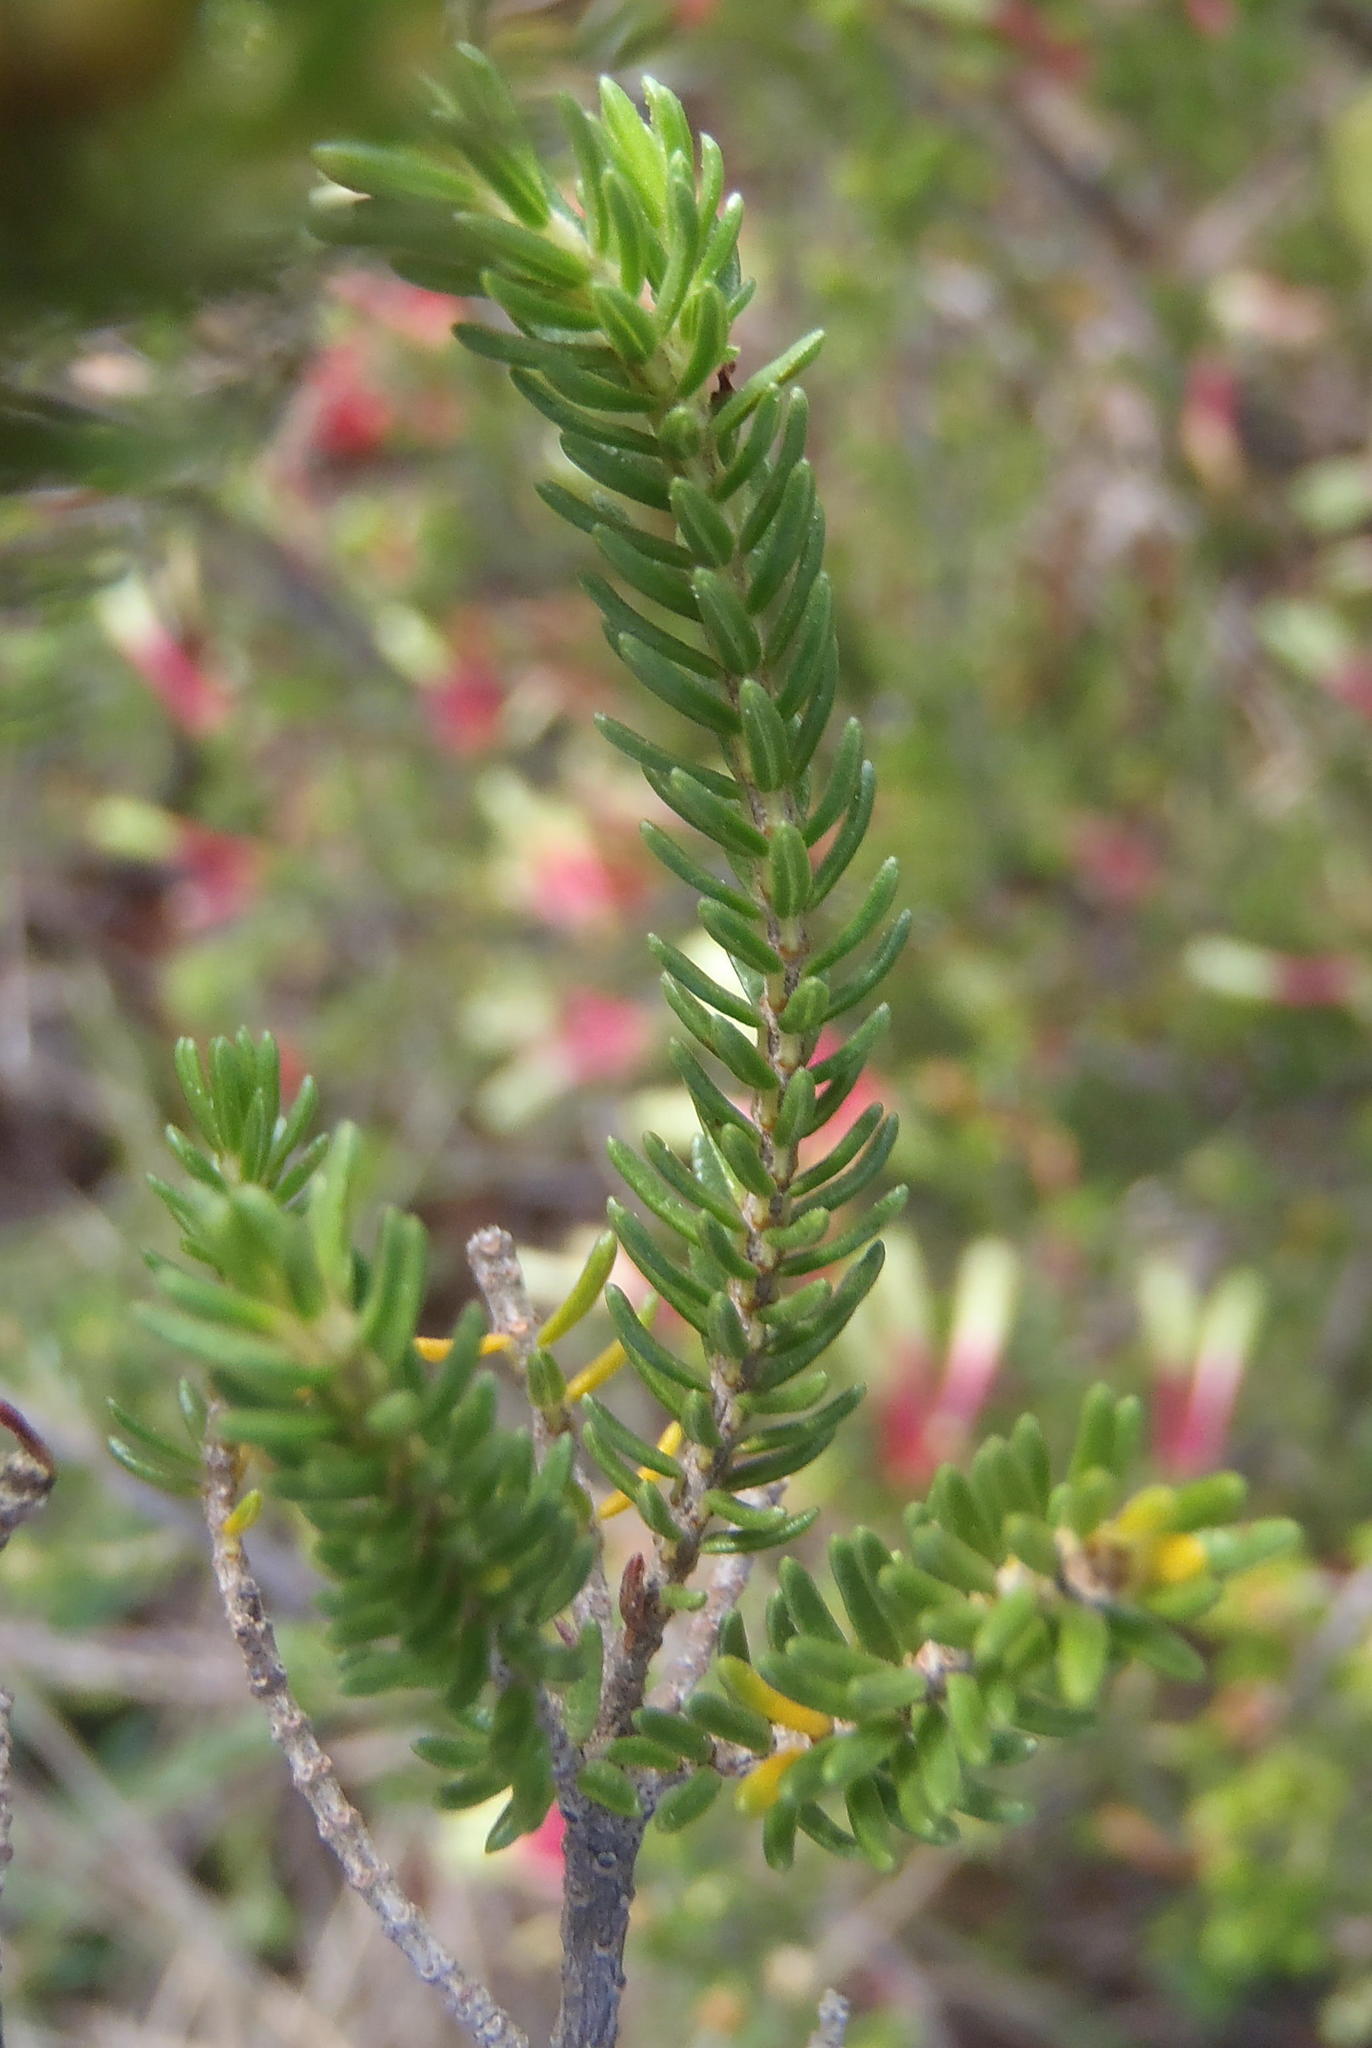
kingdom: Plantae
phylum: Tracheophyta
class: Magnoliopsida
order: Ericales
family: Ericaceae
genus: Erica
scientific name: Erica unicolor
